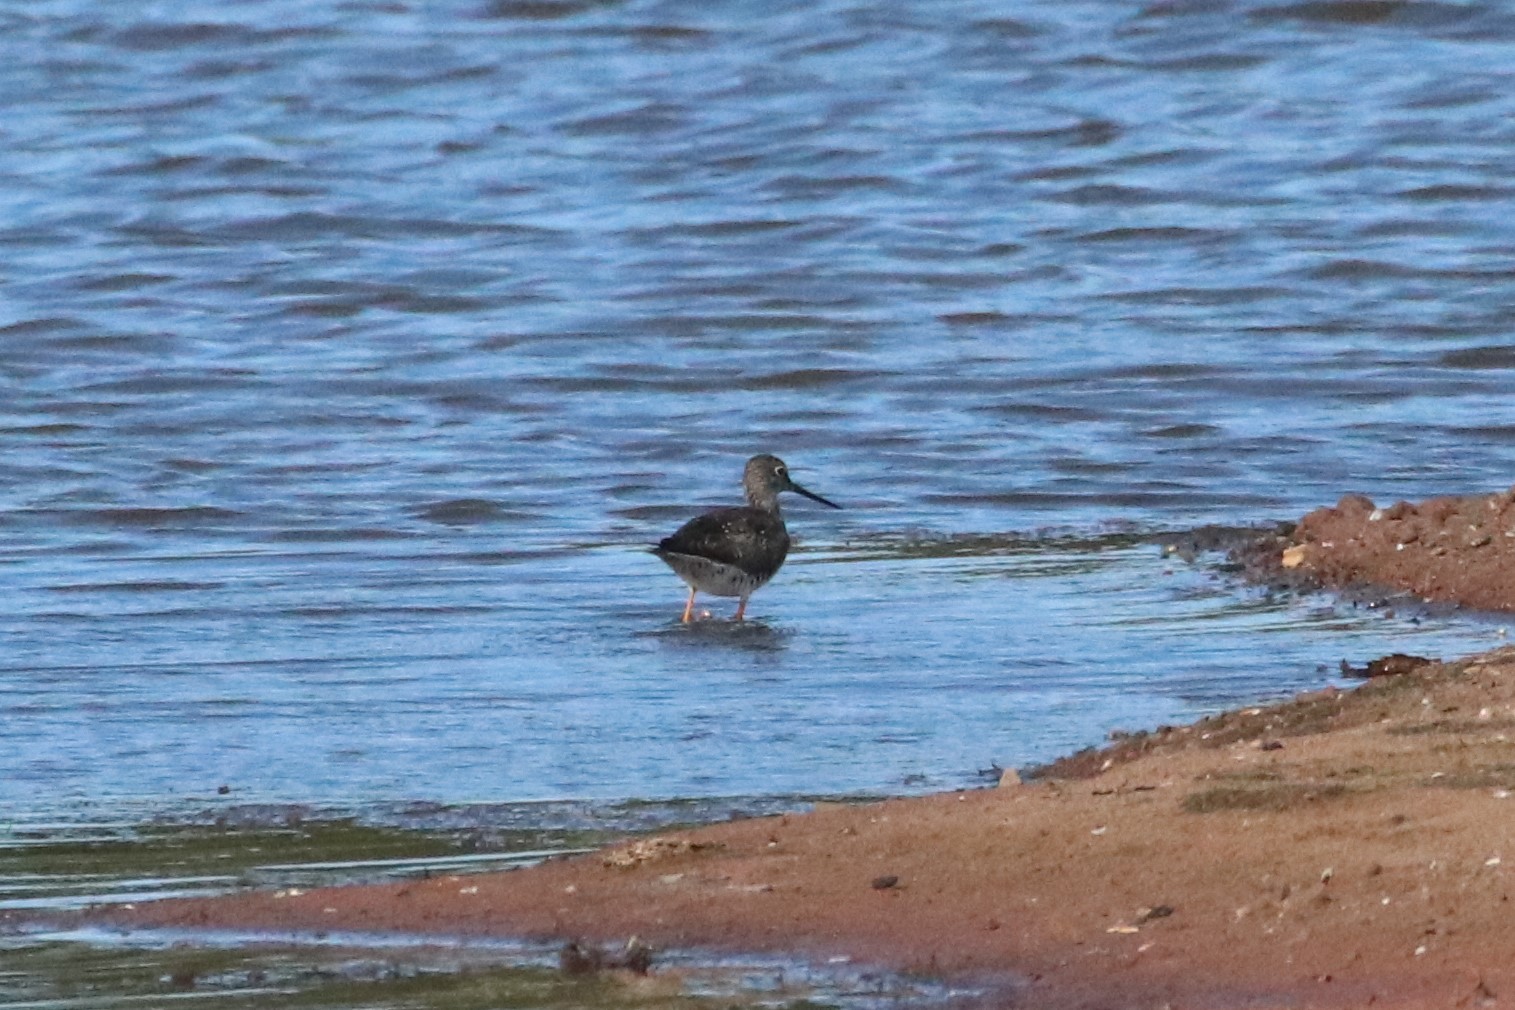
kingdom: Animalia
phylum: Chordata
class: Aves
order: Charadriiformes
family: Scolopacidae
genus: Tringa
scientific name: Tringa melanoleuca
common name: Greater yellowlegs
